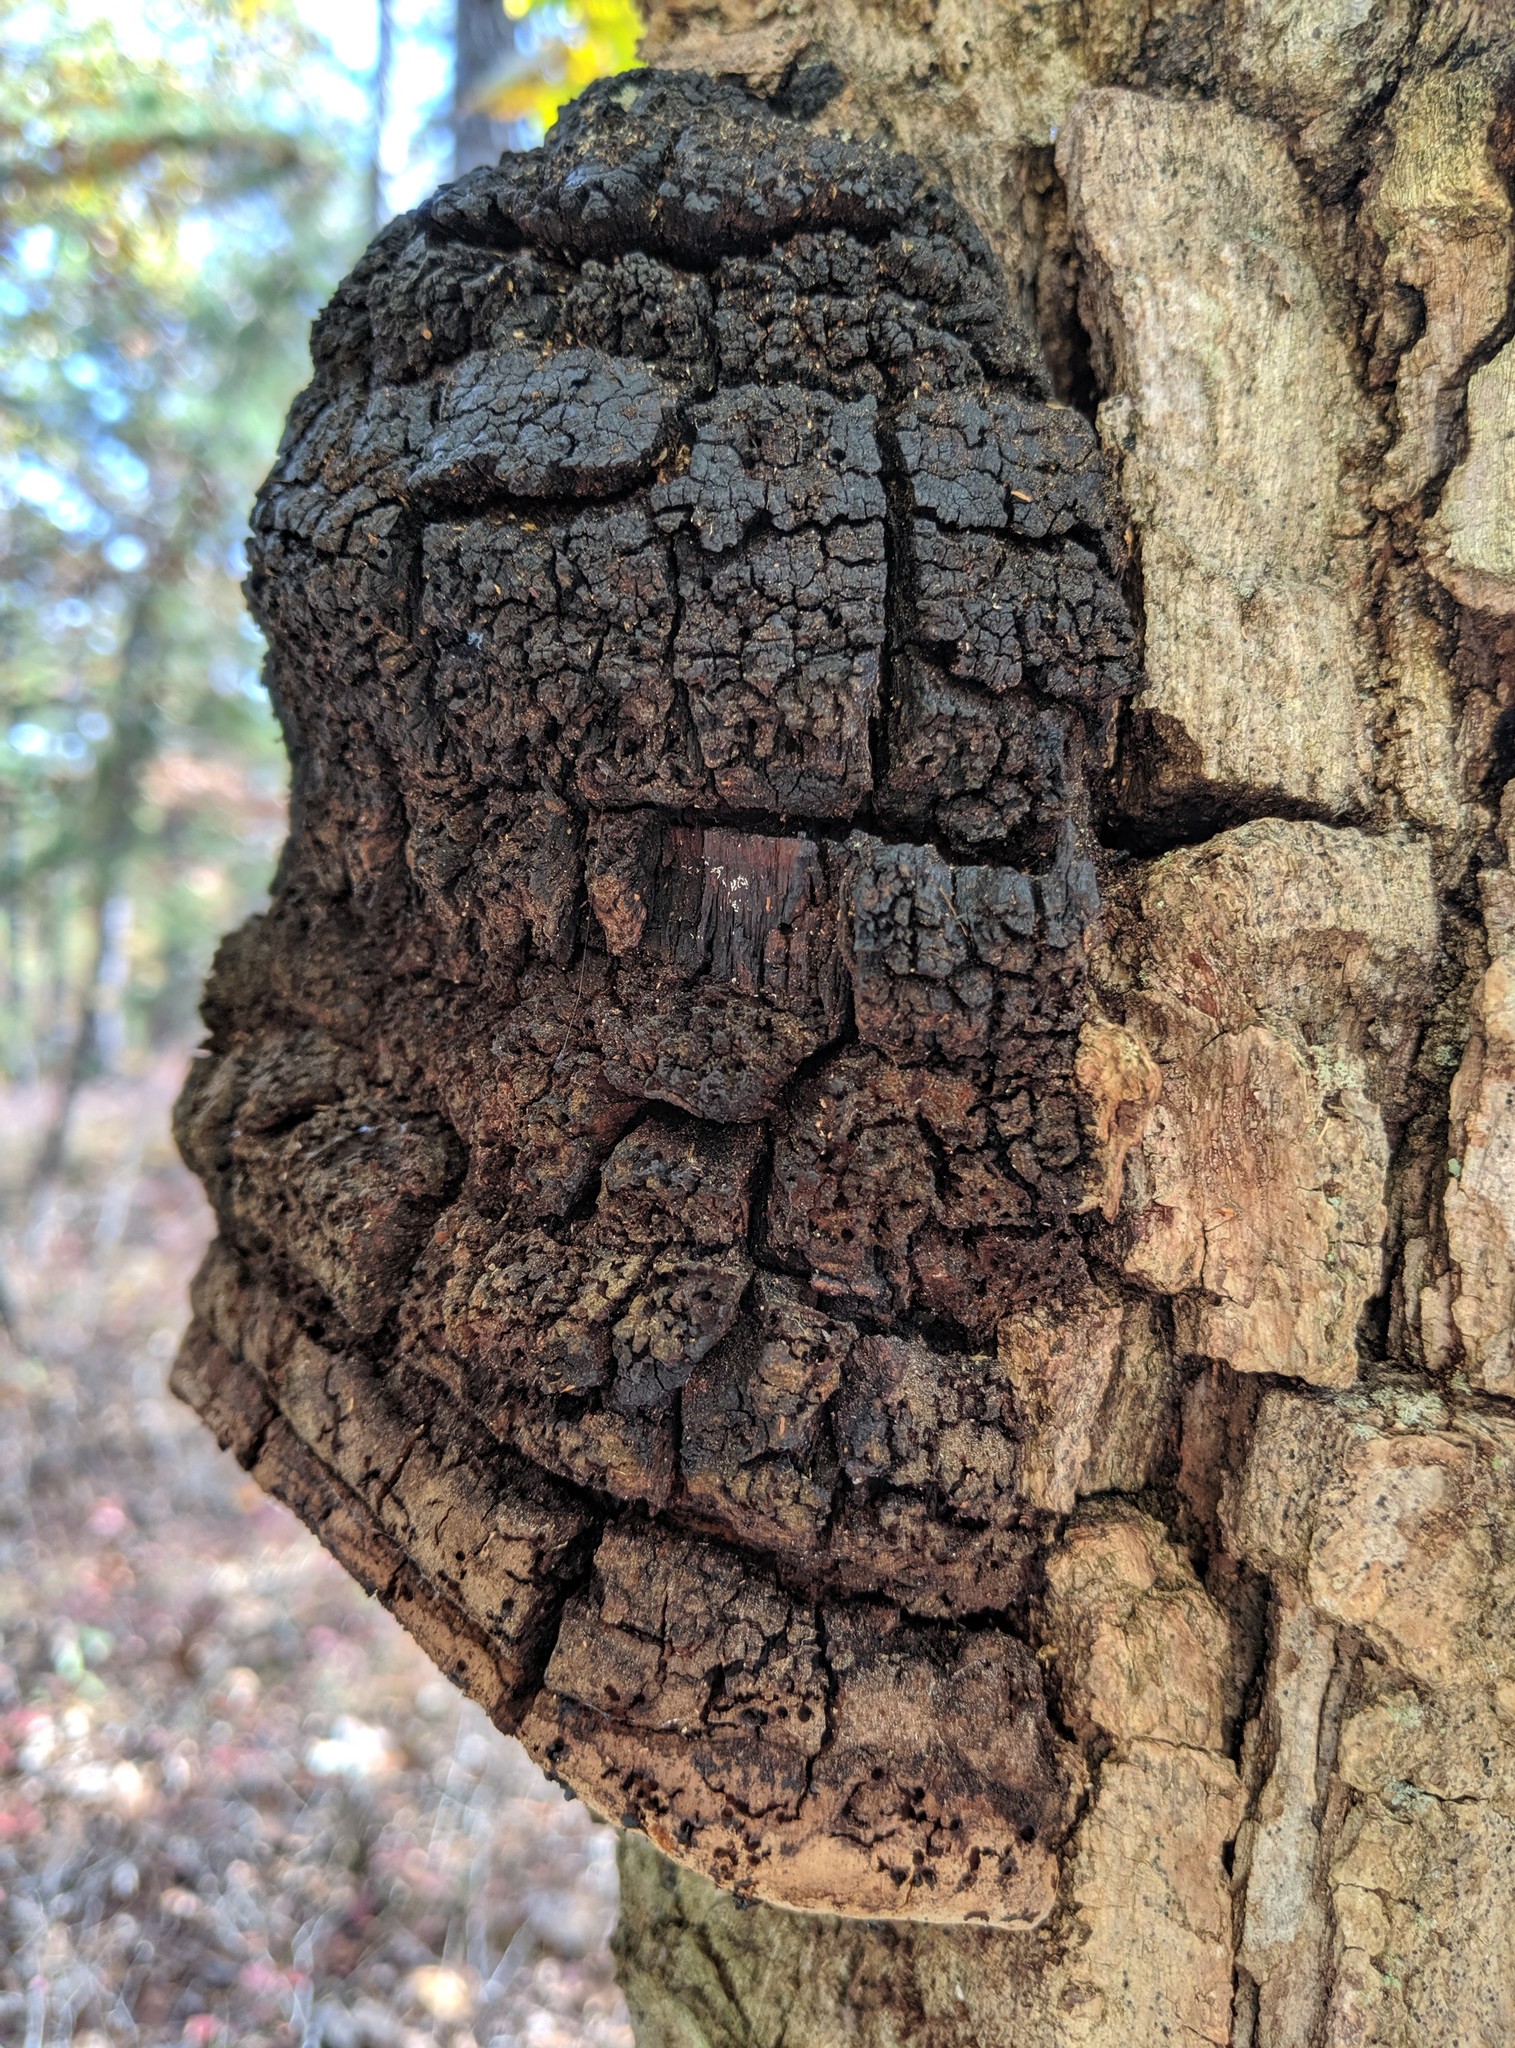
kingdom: Fungi
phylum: Basidiomycota
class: Agaricomycetes
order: Hymenochaetales
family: Hymenochaetaceae
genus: Meganotus
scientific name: Meganotus everhartii
